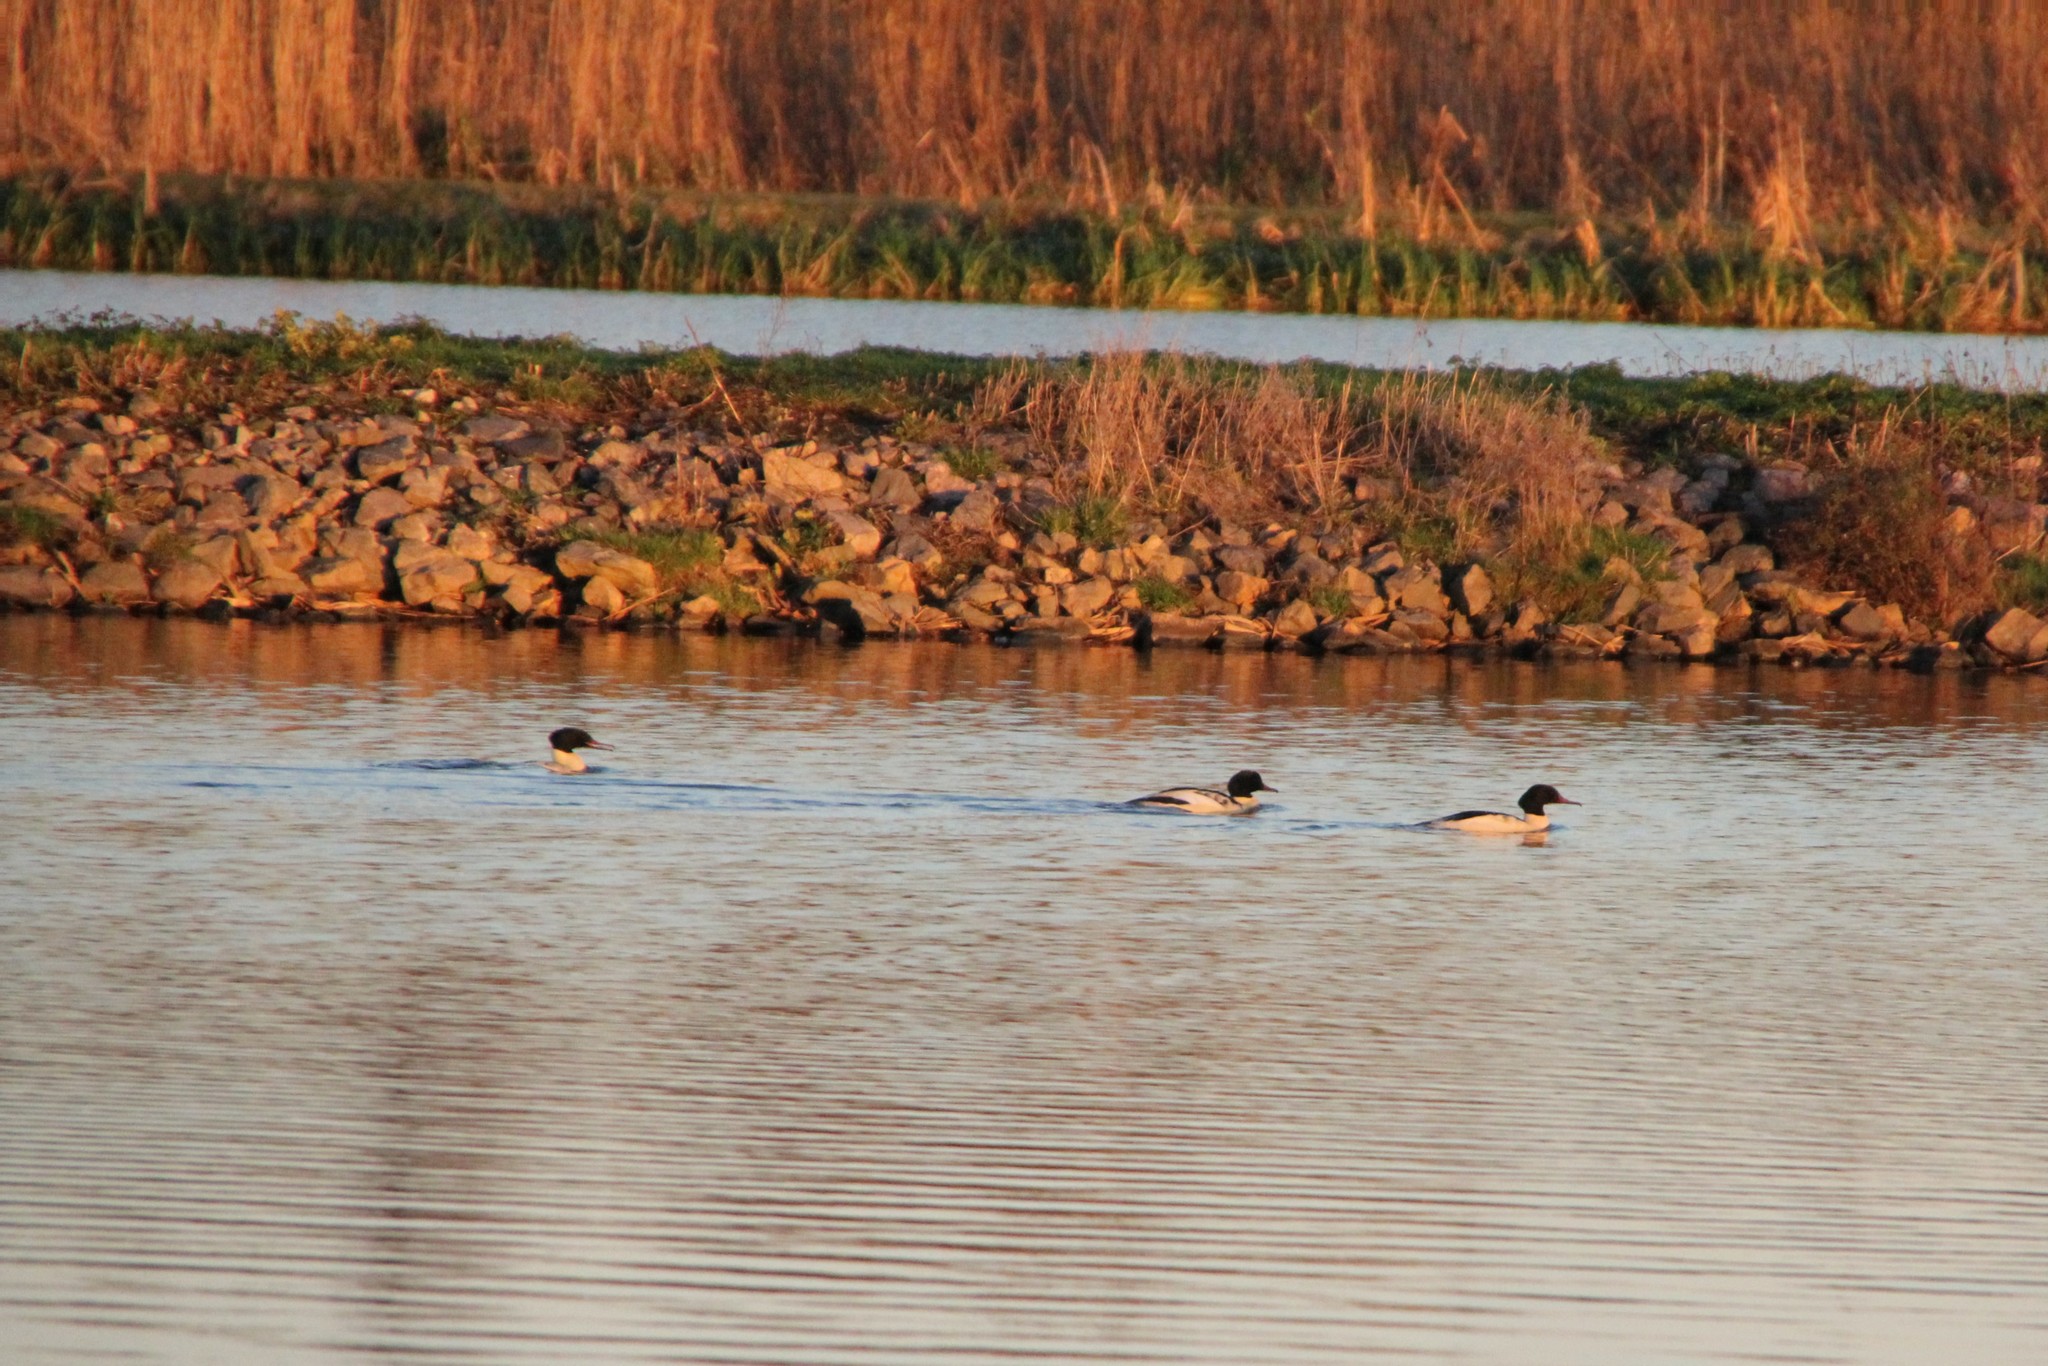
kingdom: Animalia
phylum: Chordata
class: Aves
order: Anseriformes
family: Anatidae
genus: Mergus
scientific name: Mergus merganser
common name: Common merganser
